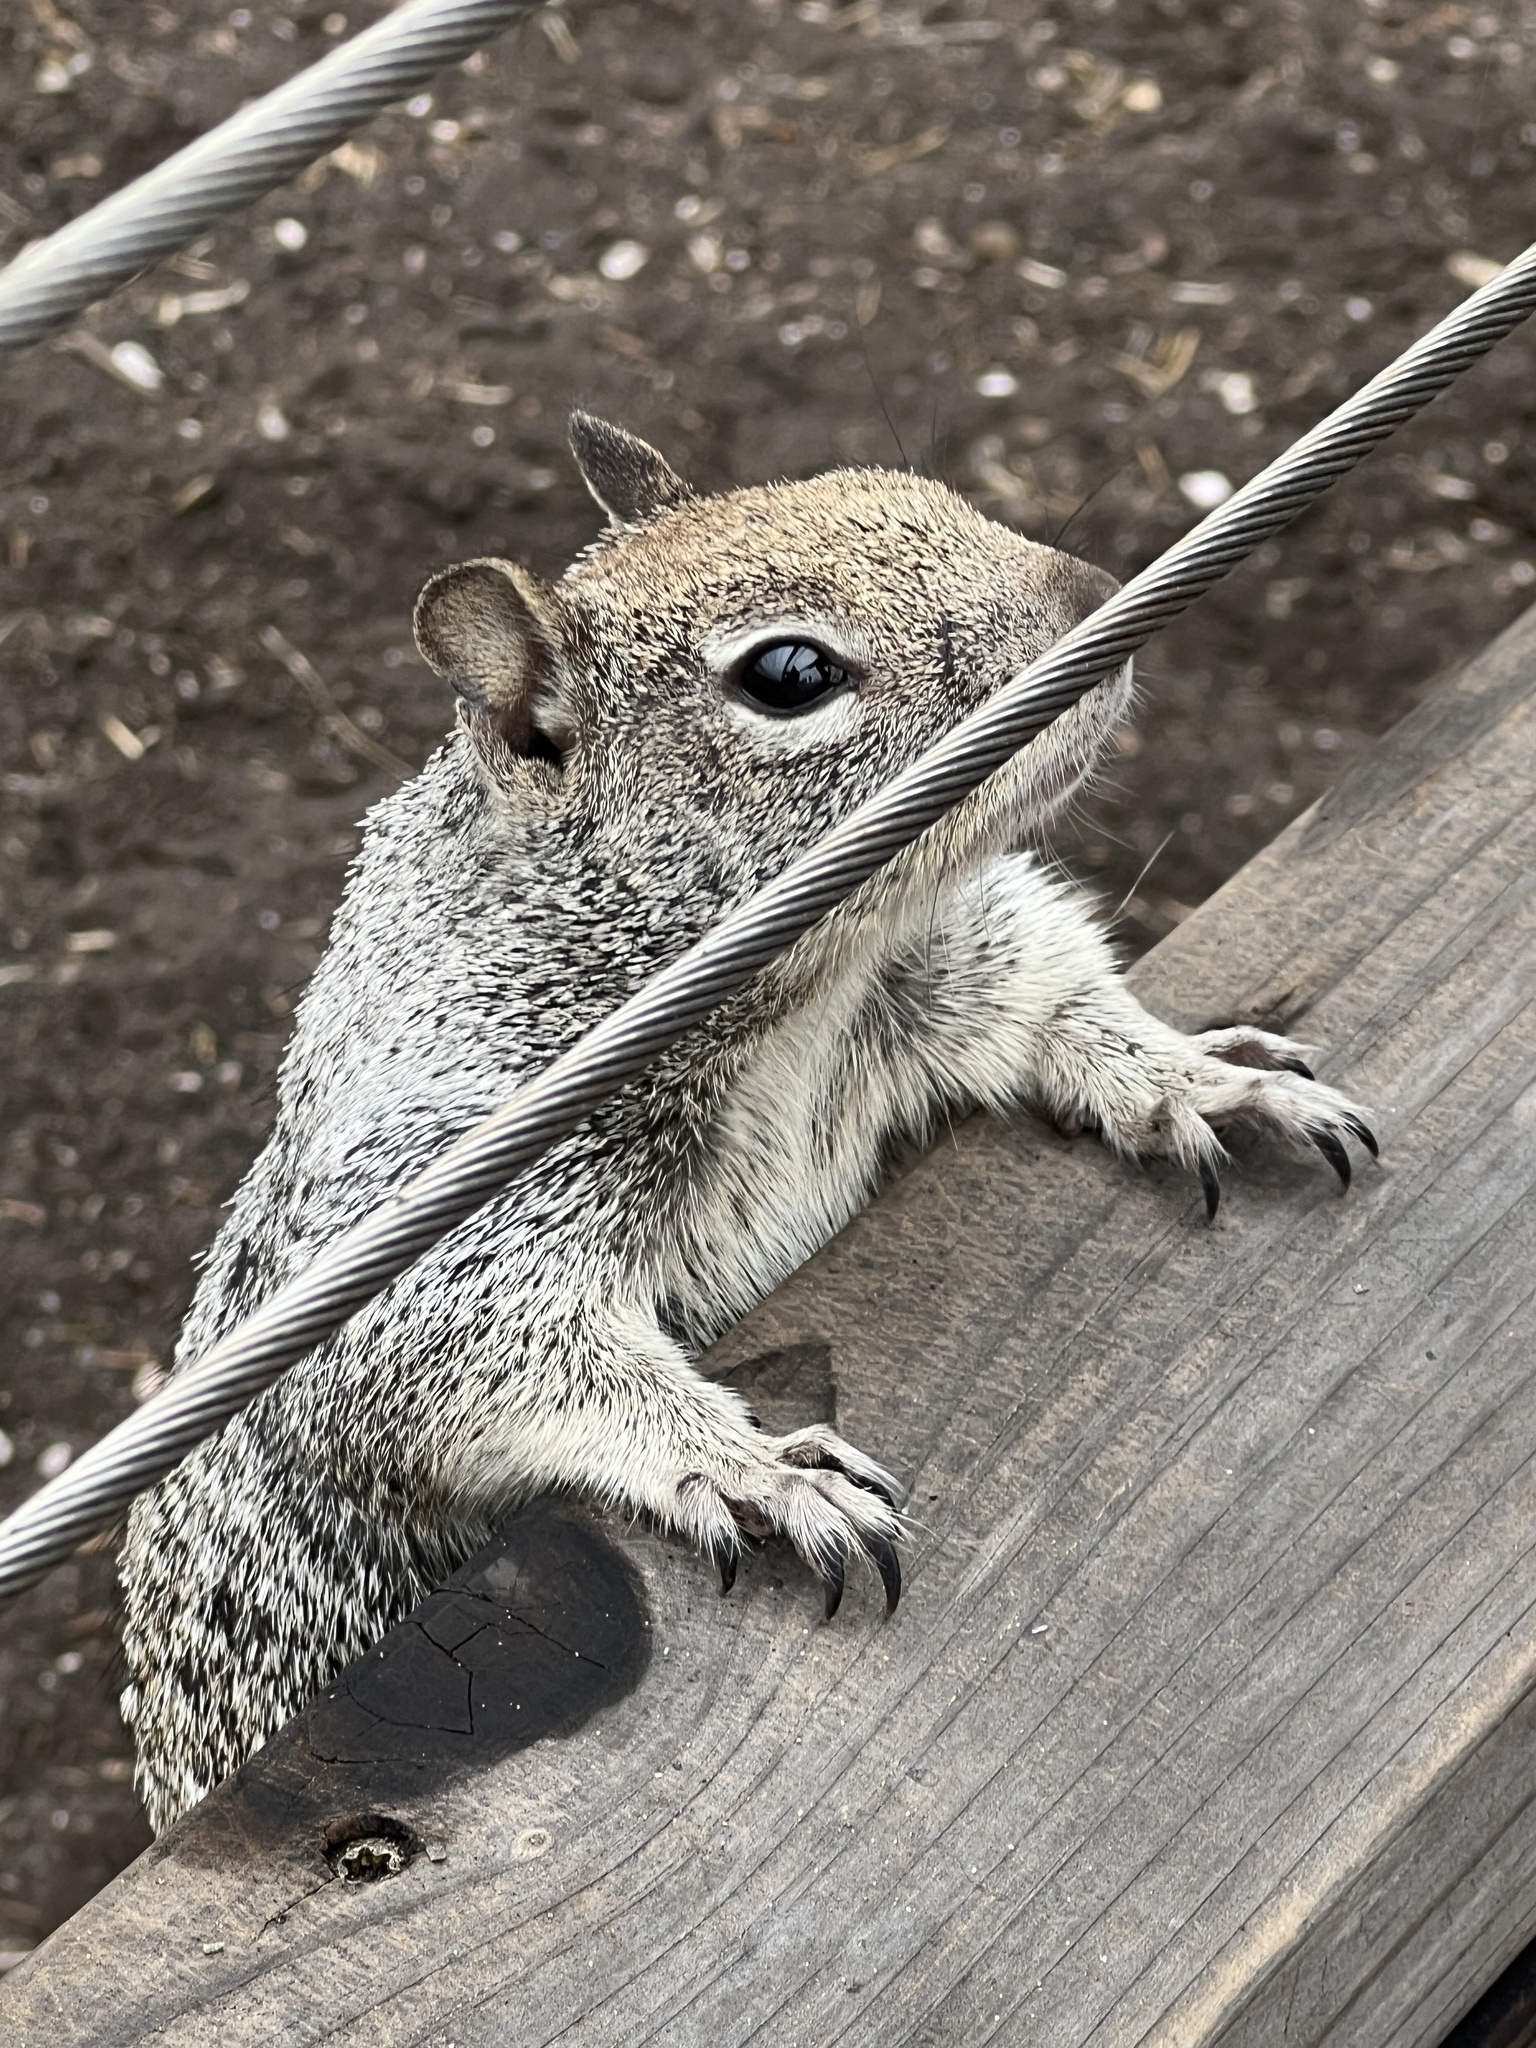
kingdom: Animalia
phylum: Chordata
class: Mammalia
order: Rodentia
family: Sciuridae
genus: Otospermophilus
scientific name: Otospermophilus beecheyi
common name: California ground squirrel
